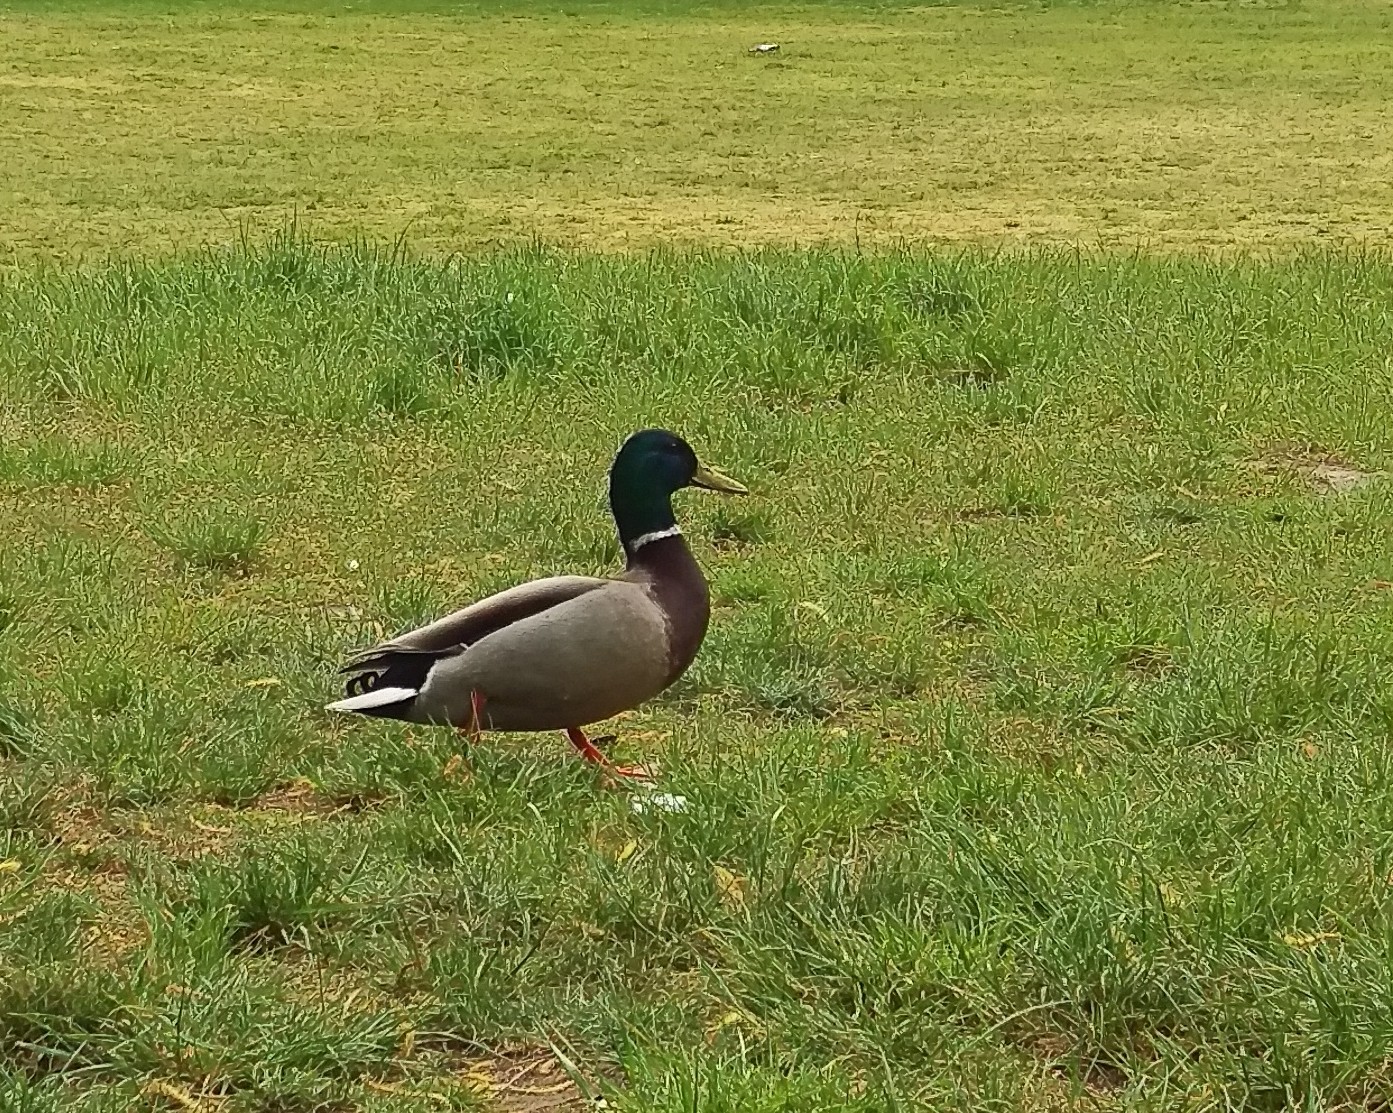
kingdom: Animalia
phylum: Chordata
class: Aves
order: Anseriformes
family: Anatidae
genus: Anas
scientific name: Anas platyrhynchos
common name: Mallard
